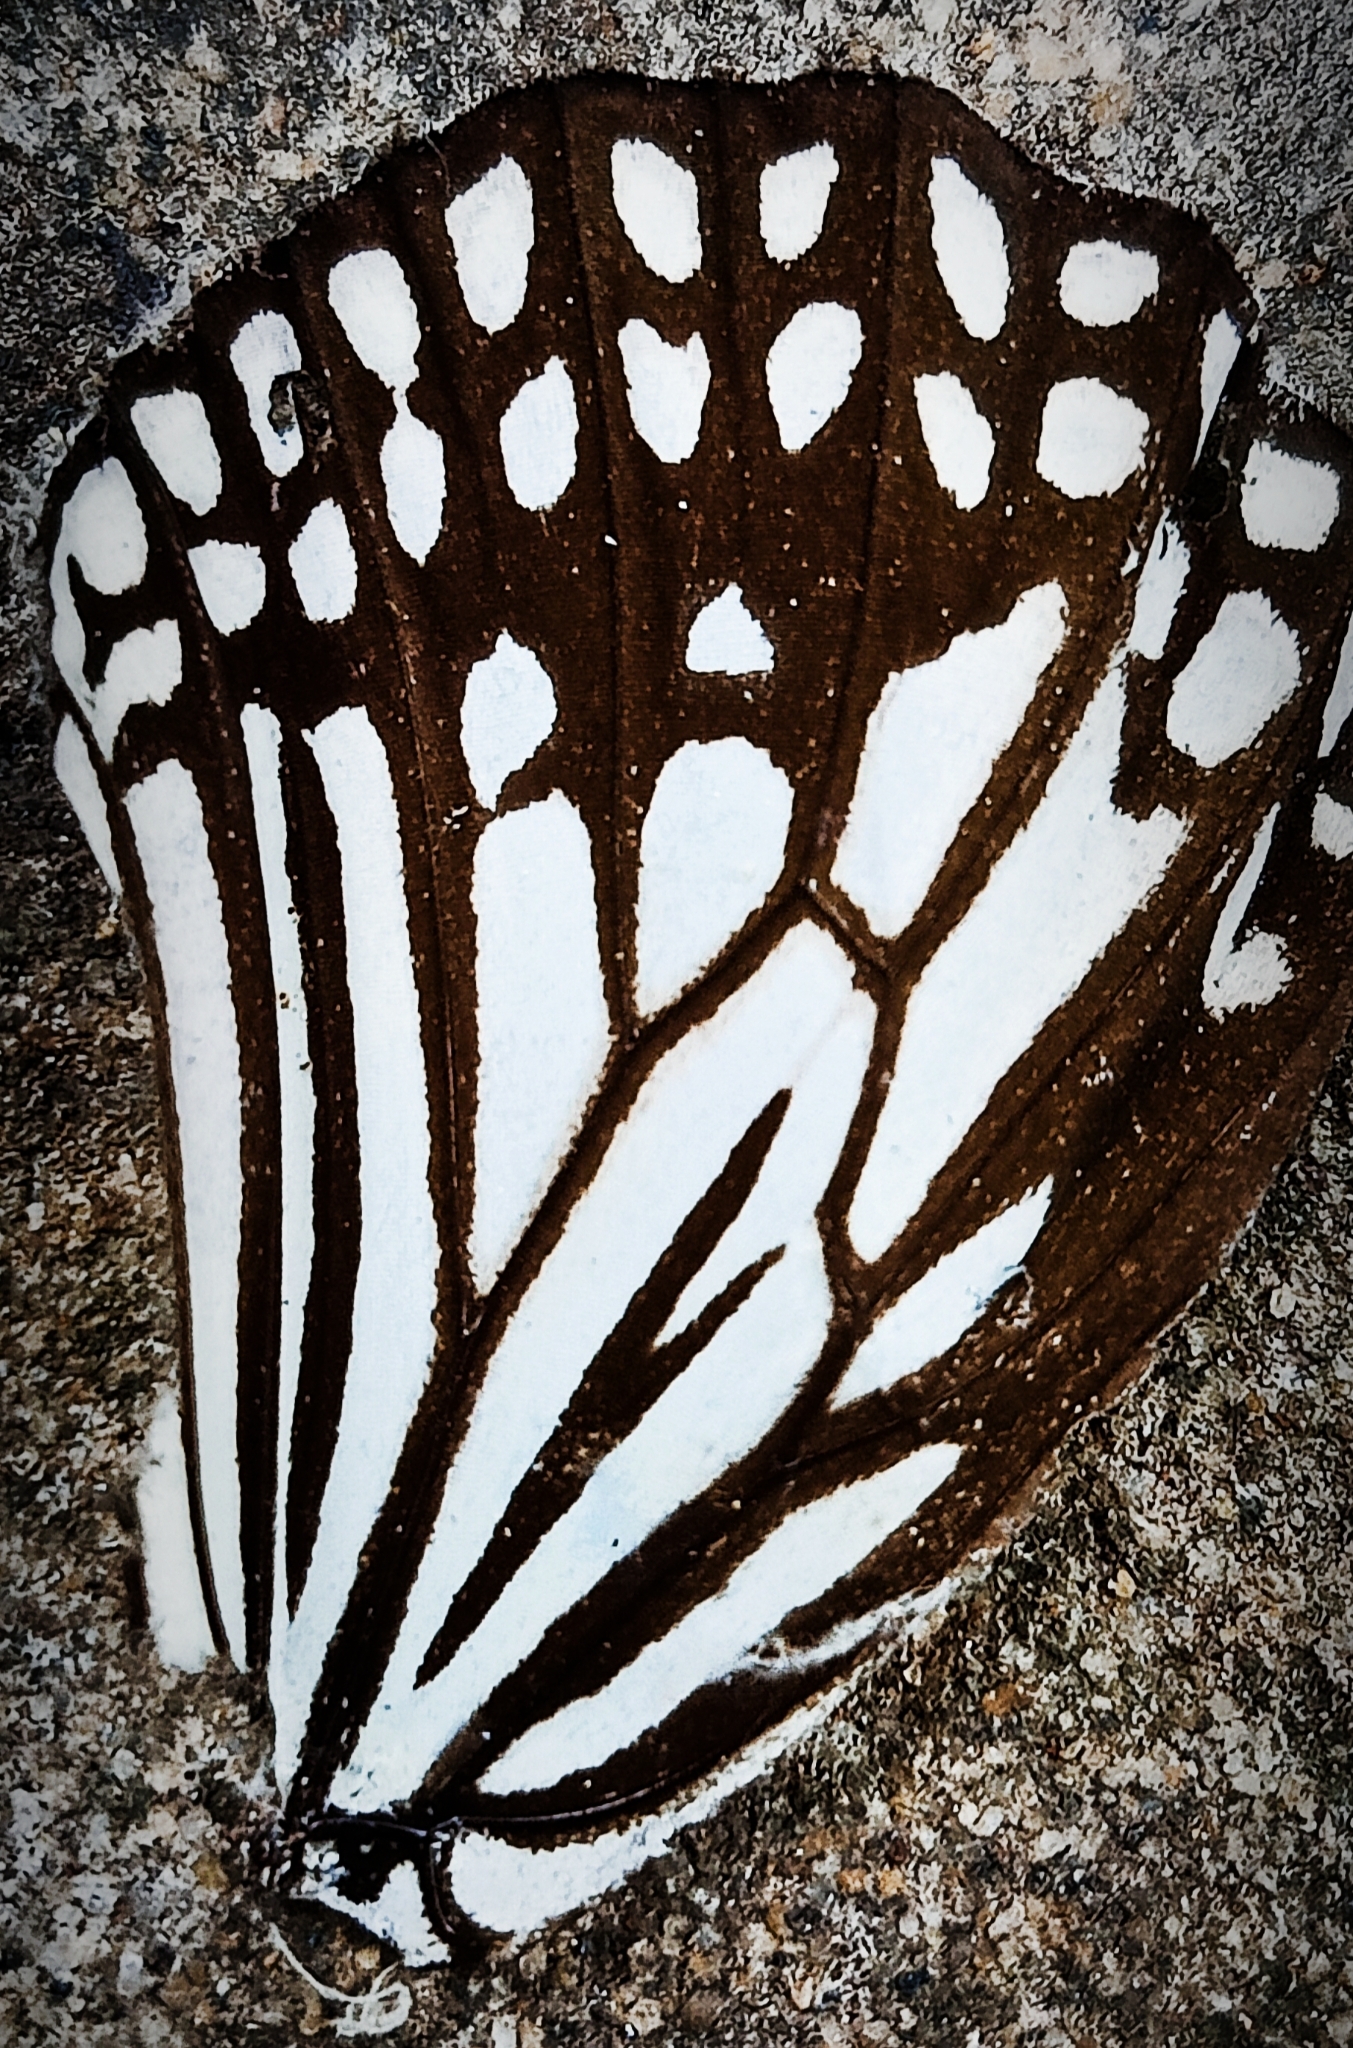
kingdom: Animalia
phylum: Arthropoda
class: Insecta
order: Lepidoptera
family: Nymphalidae
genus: Parantica
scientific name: Parantica aglea
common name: Glassy tiger
